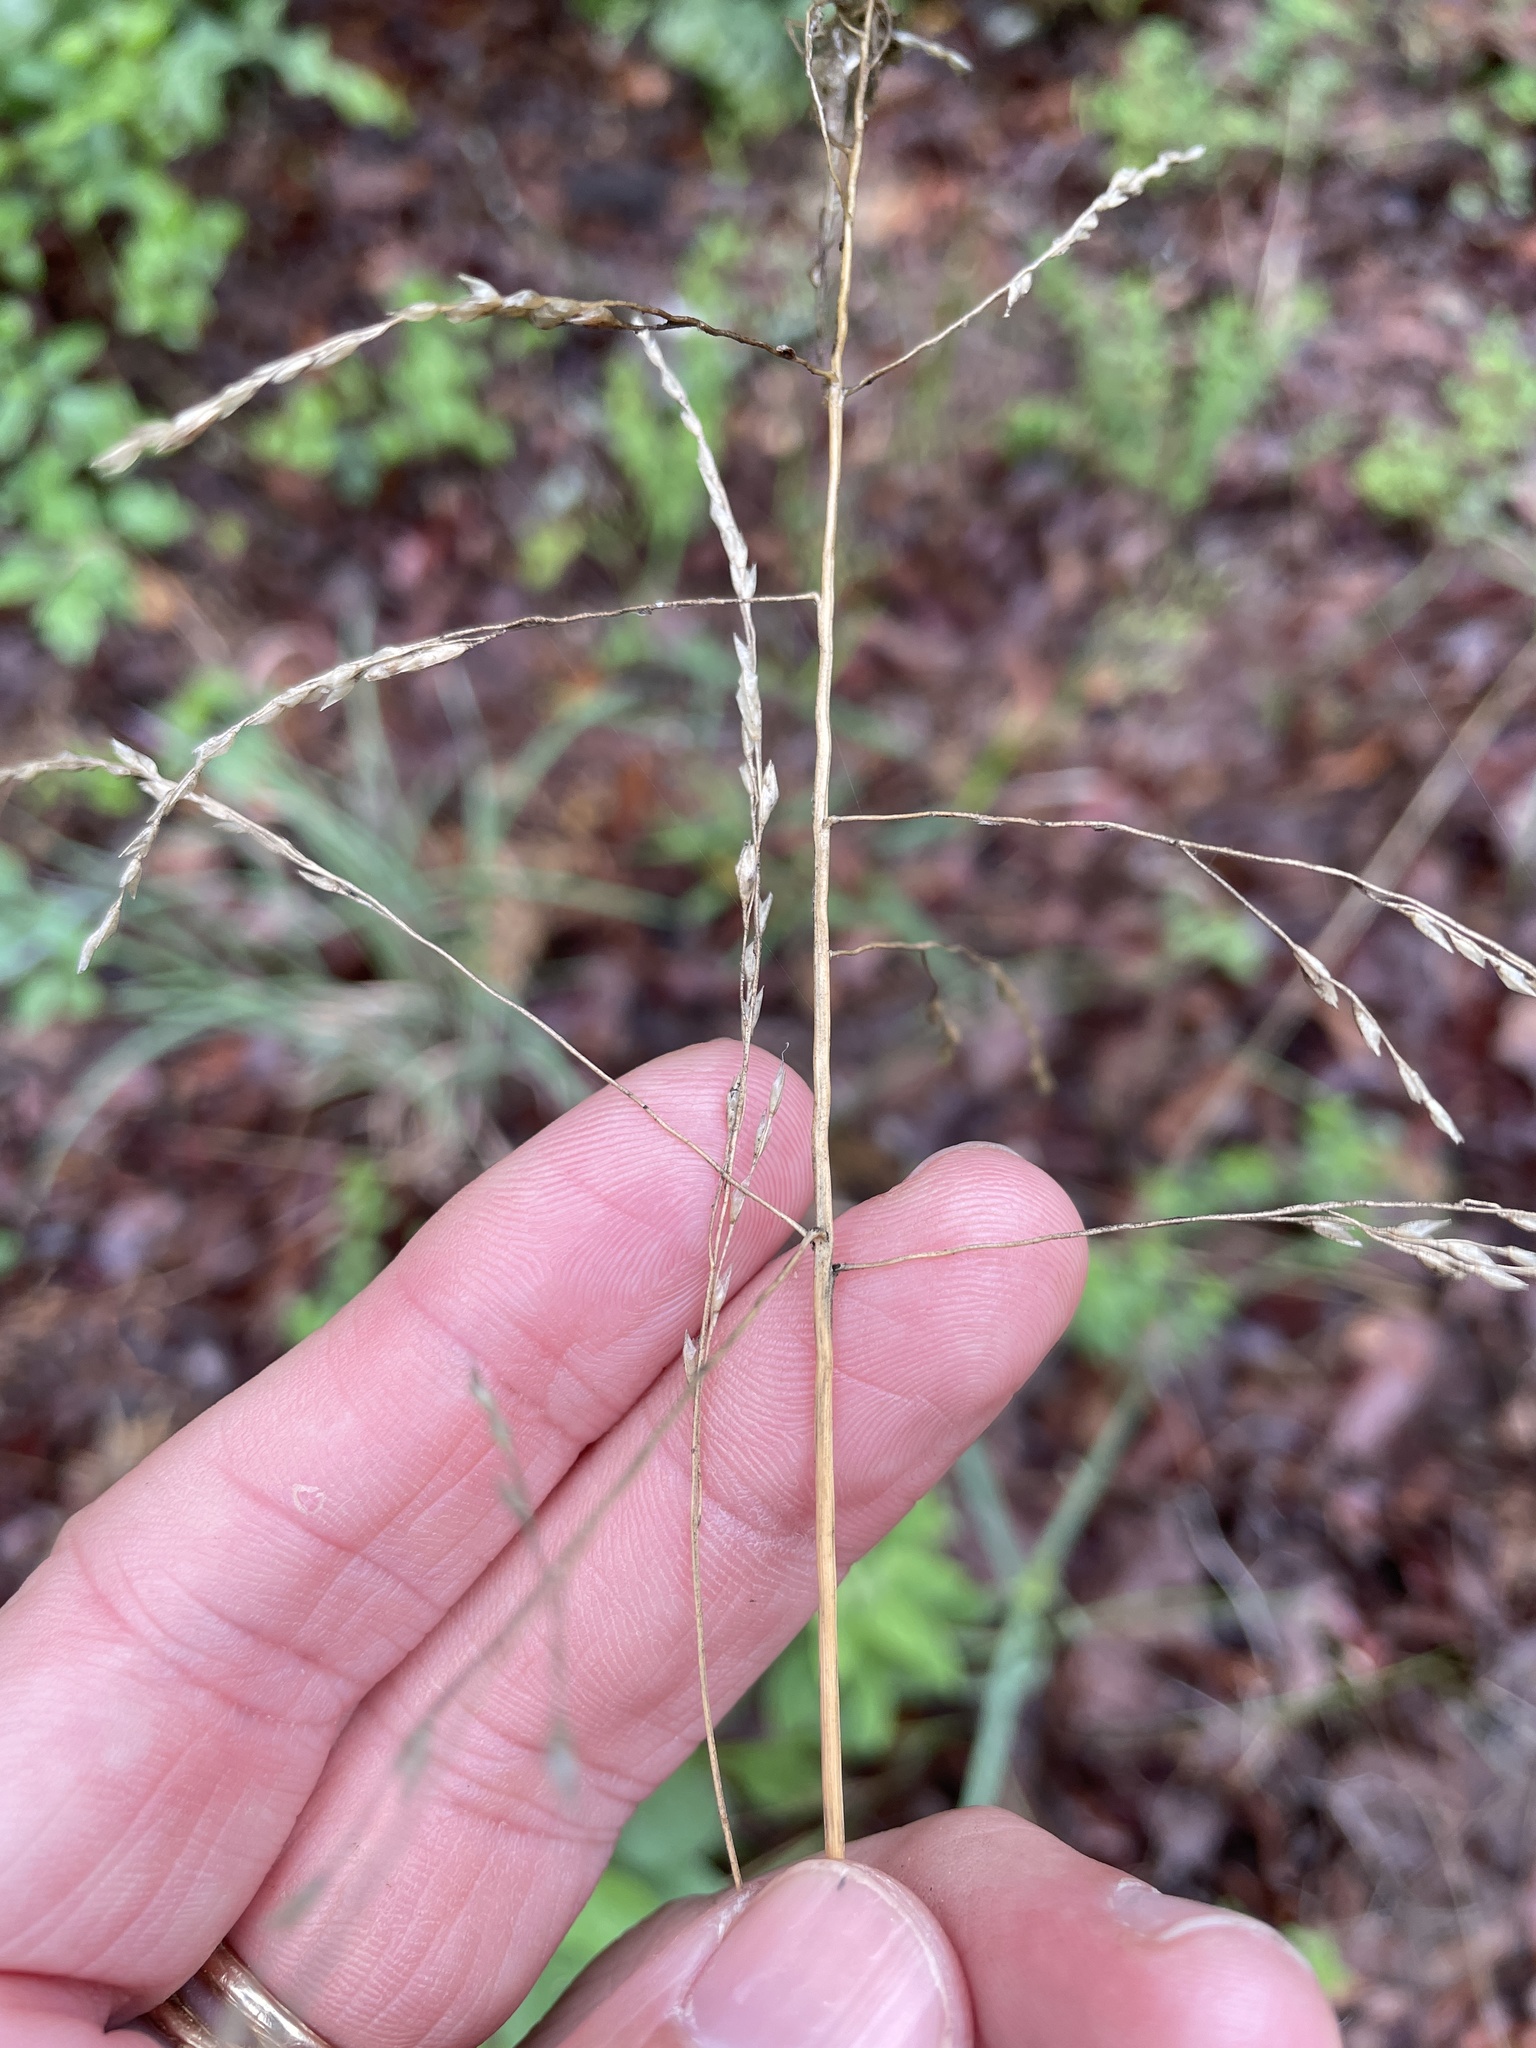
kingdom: Plantae
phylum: Tracheophyta
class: Liliopsida
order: Poales
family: Poaceae
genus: Tridens
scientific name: Tridens flavus
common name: Purpletop
